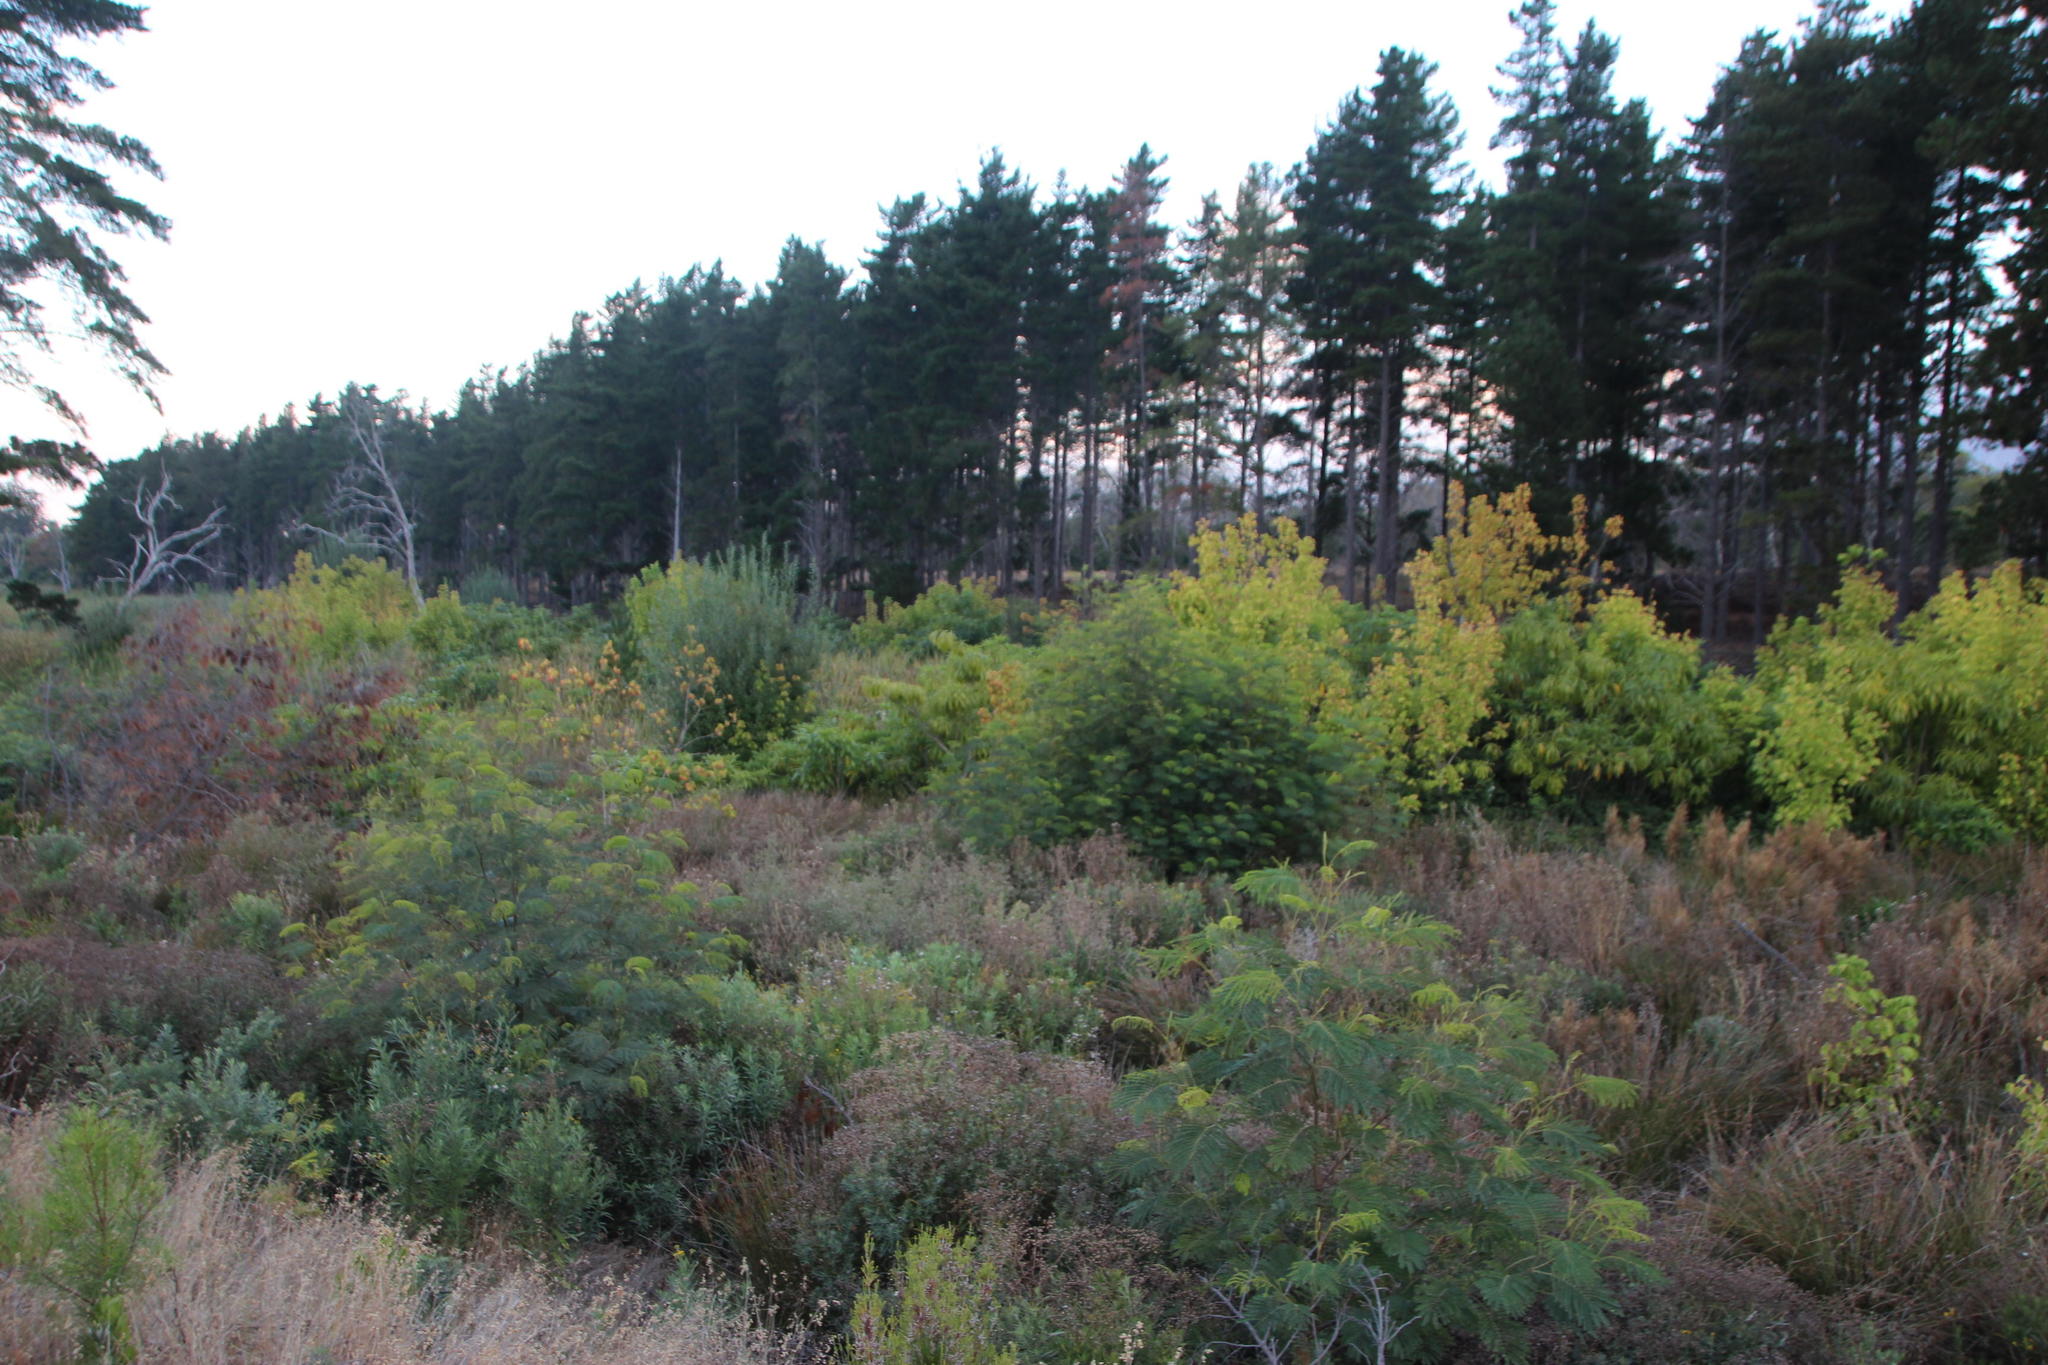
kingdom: Plantae
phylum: Tracheophyta
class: Magnoliopsida
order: Fabales
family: Fabaceae
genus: Paraserianthes
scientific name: Paraserianthes lophantha
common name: Plume albizia
